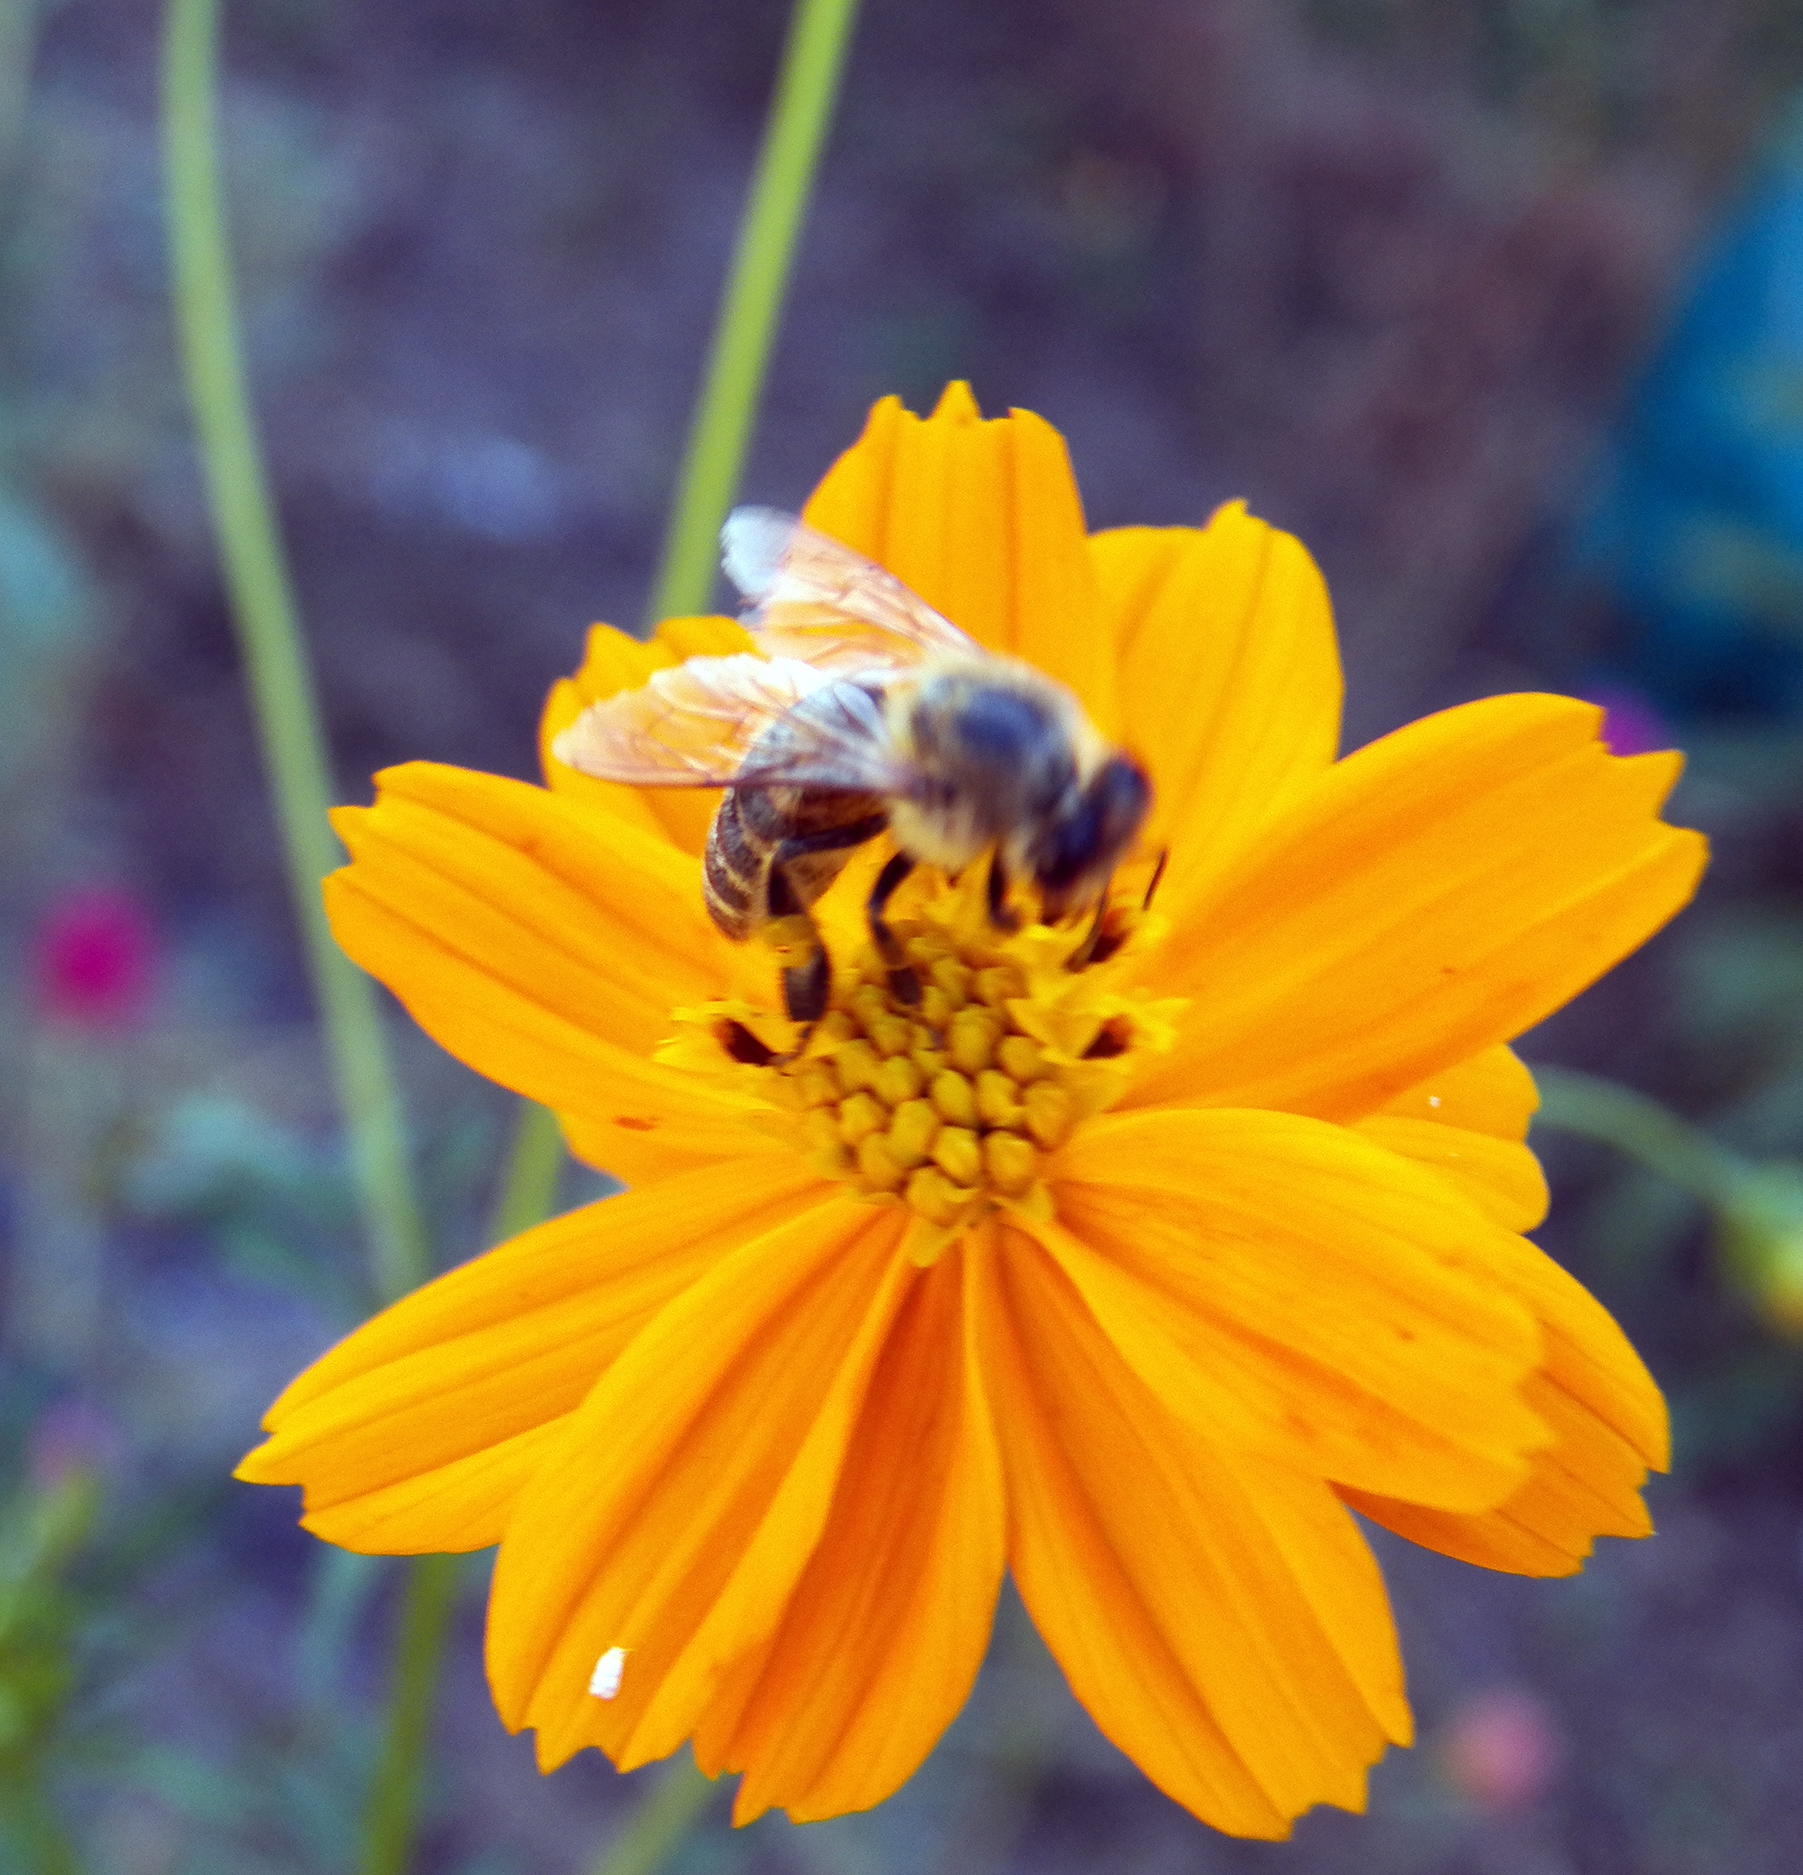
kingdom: Animalia
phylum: Arthropoda
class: Insecta
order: Hymenoptera
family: Apidae
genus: Apis
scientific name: Apis mellifera
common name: Honey bee
